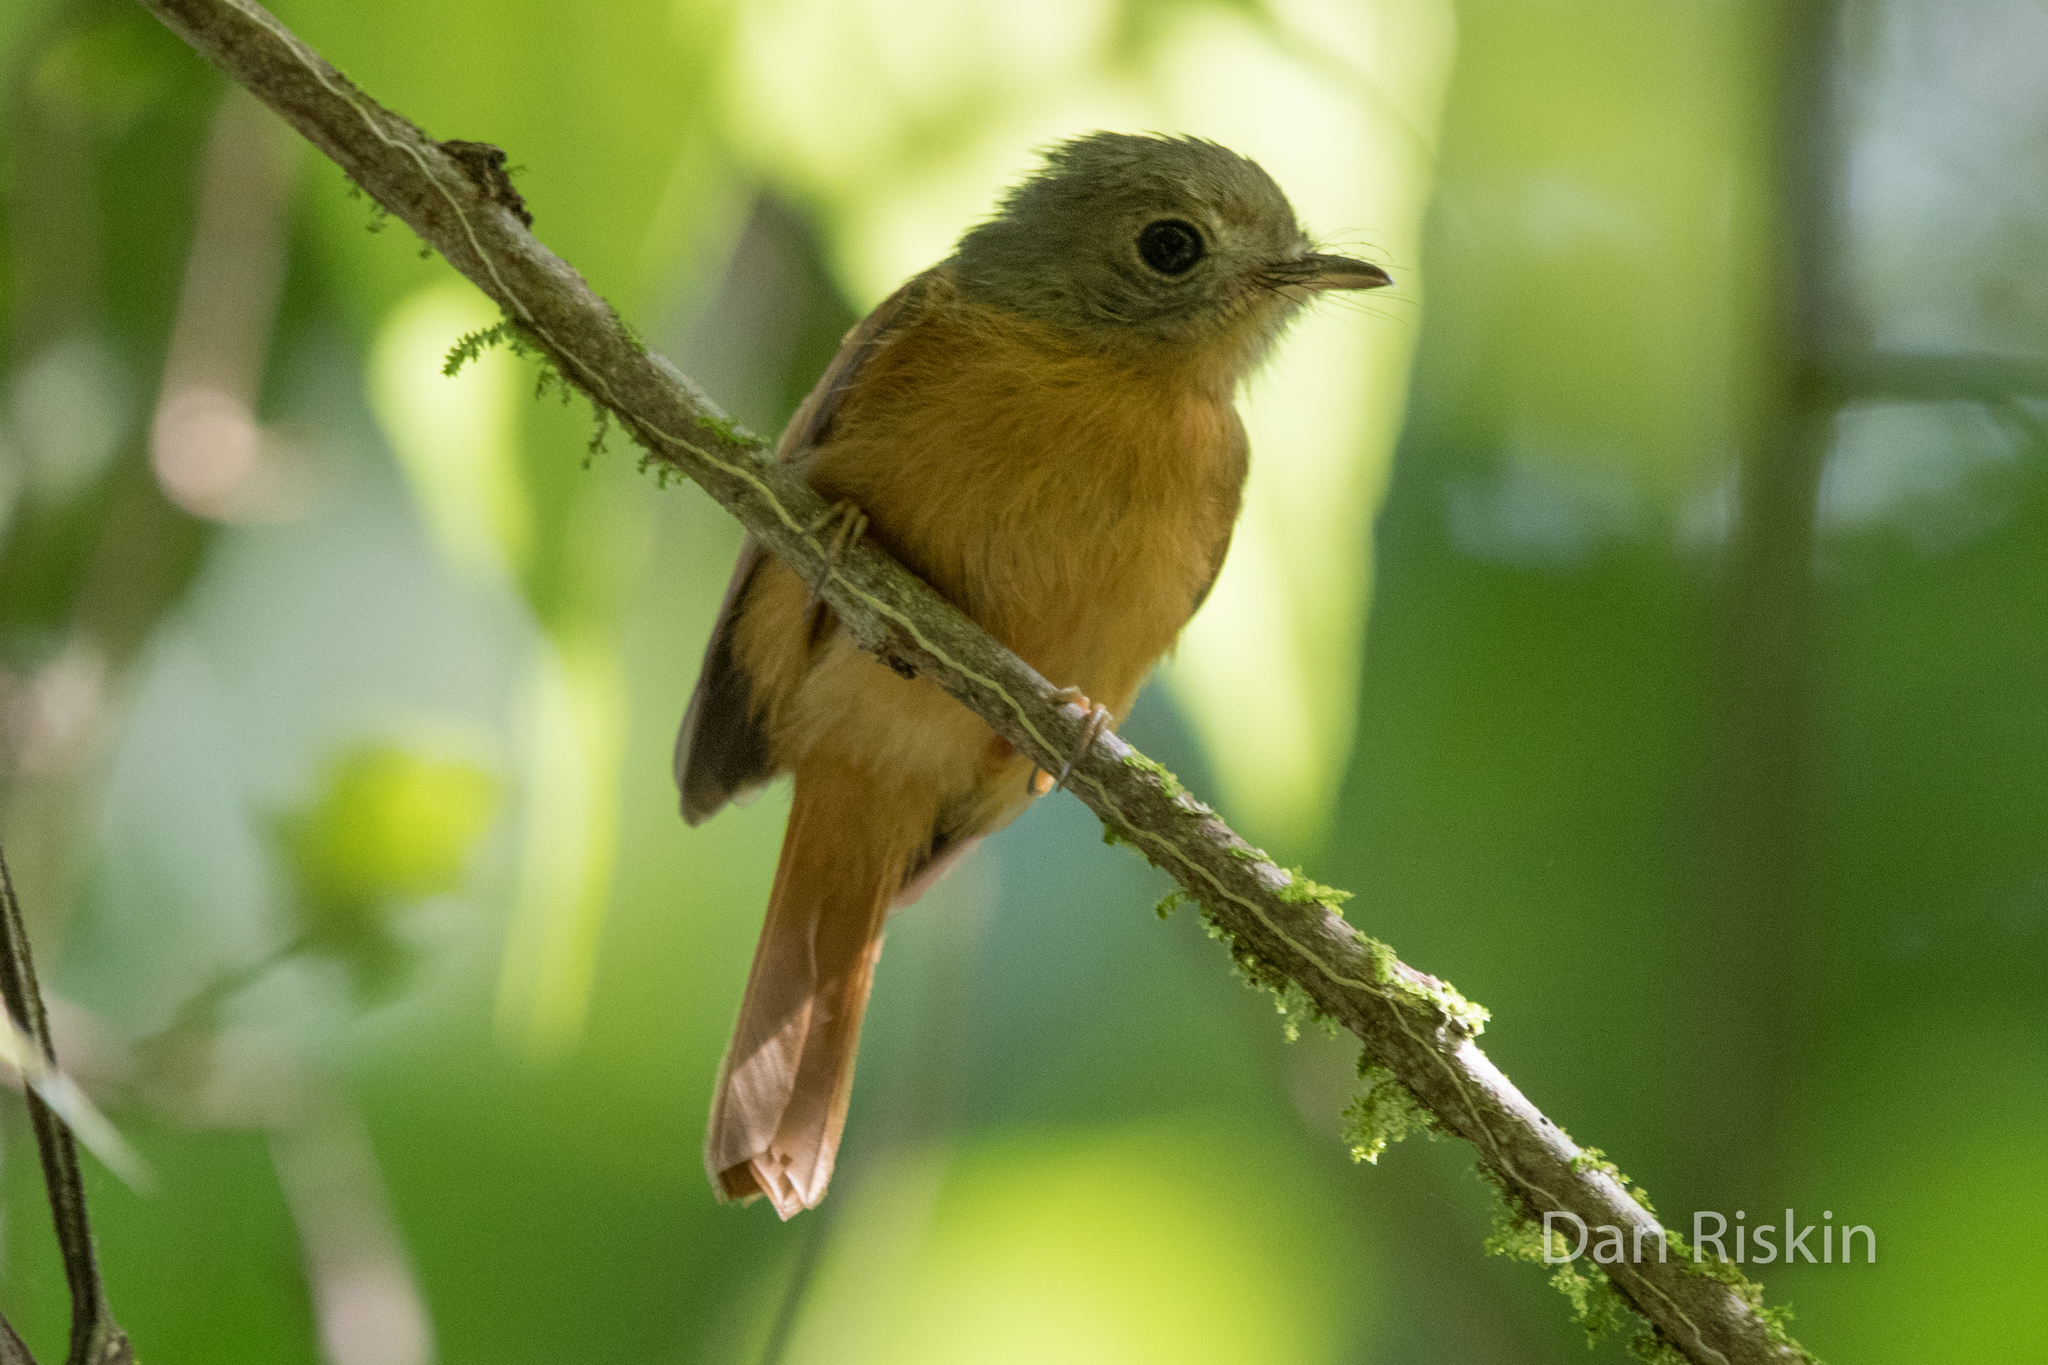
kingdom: Animalia
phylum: Chordata
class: Aves
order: Passeriformes
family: Tyrannidae
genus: Terenotriccus
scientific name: Terenotriccus erythrurus
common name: Ruddy-tailed flycatcher
